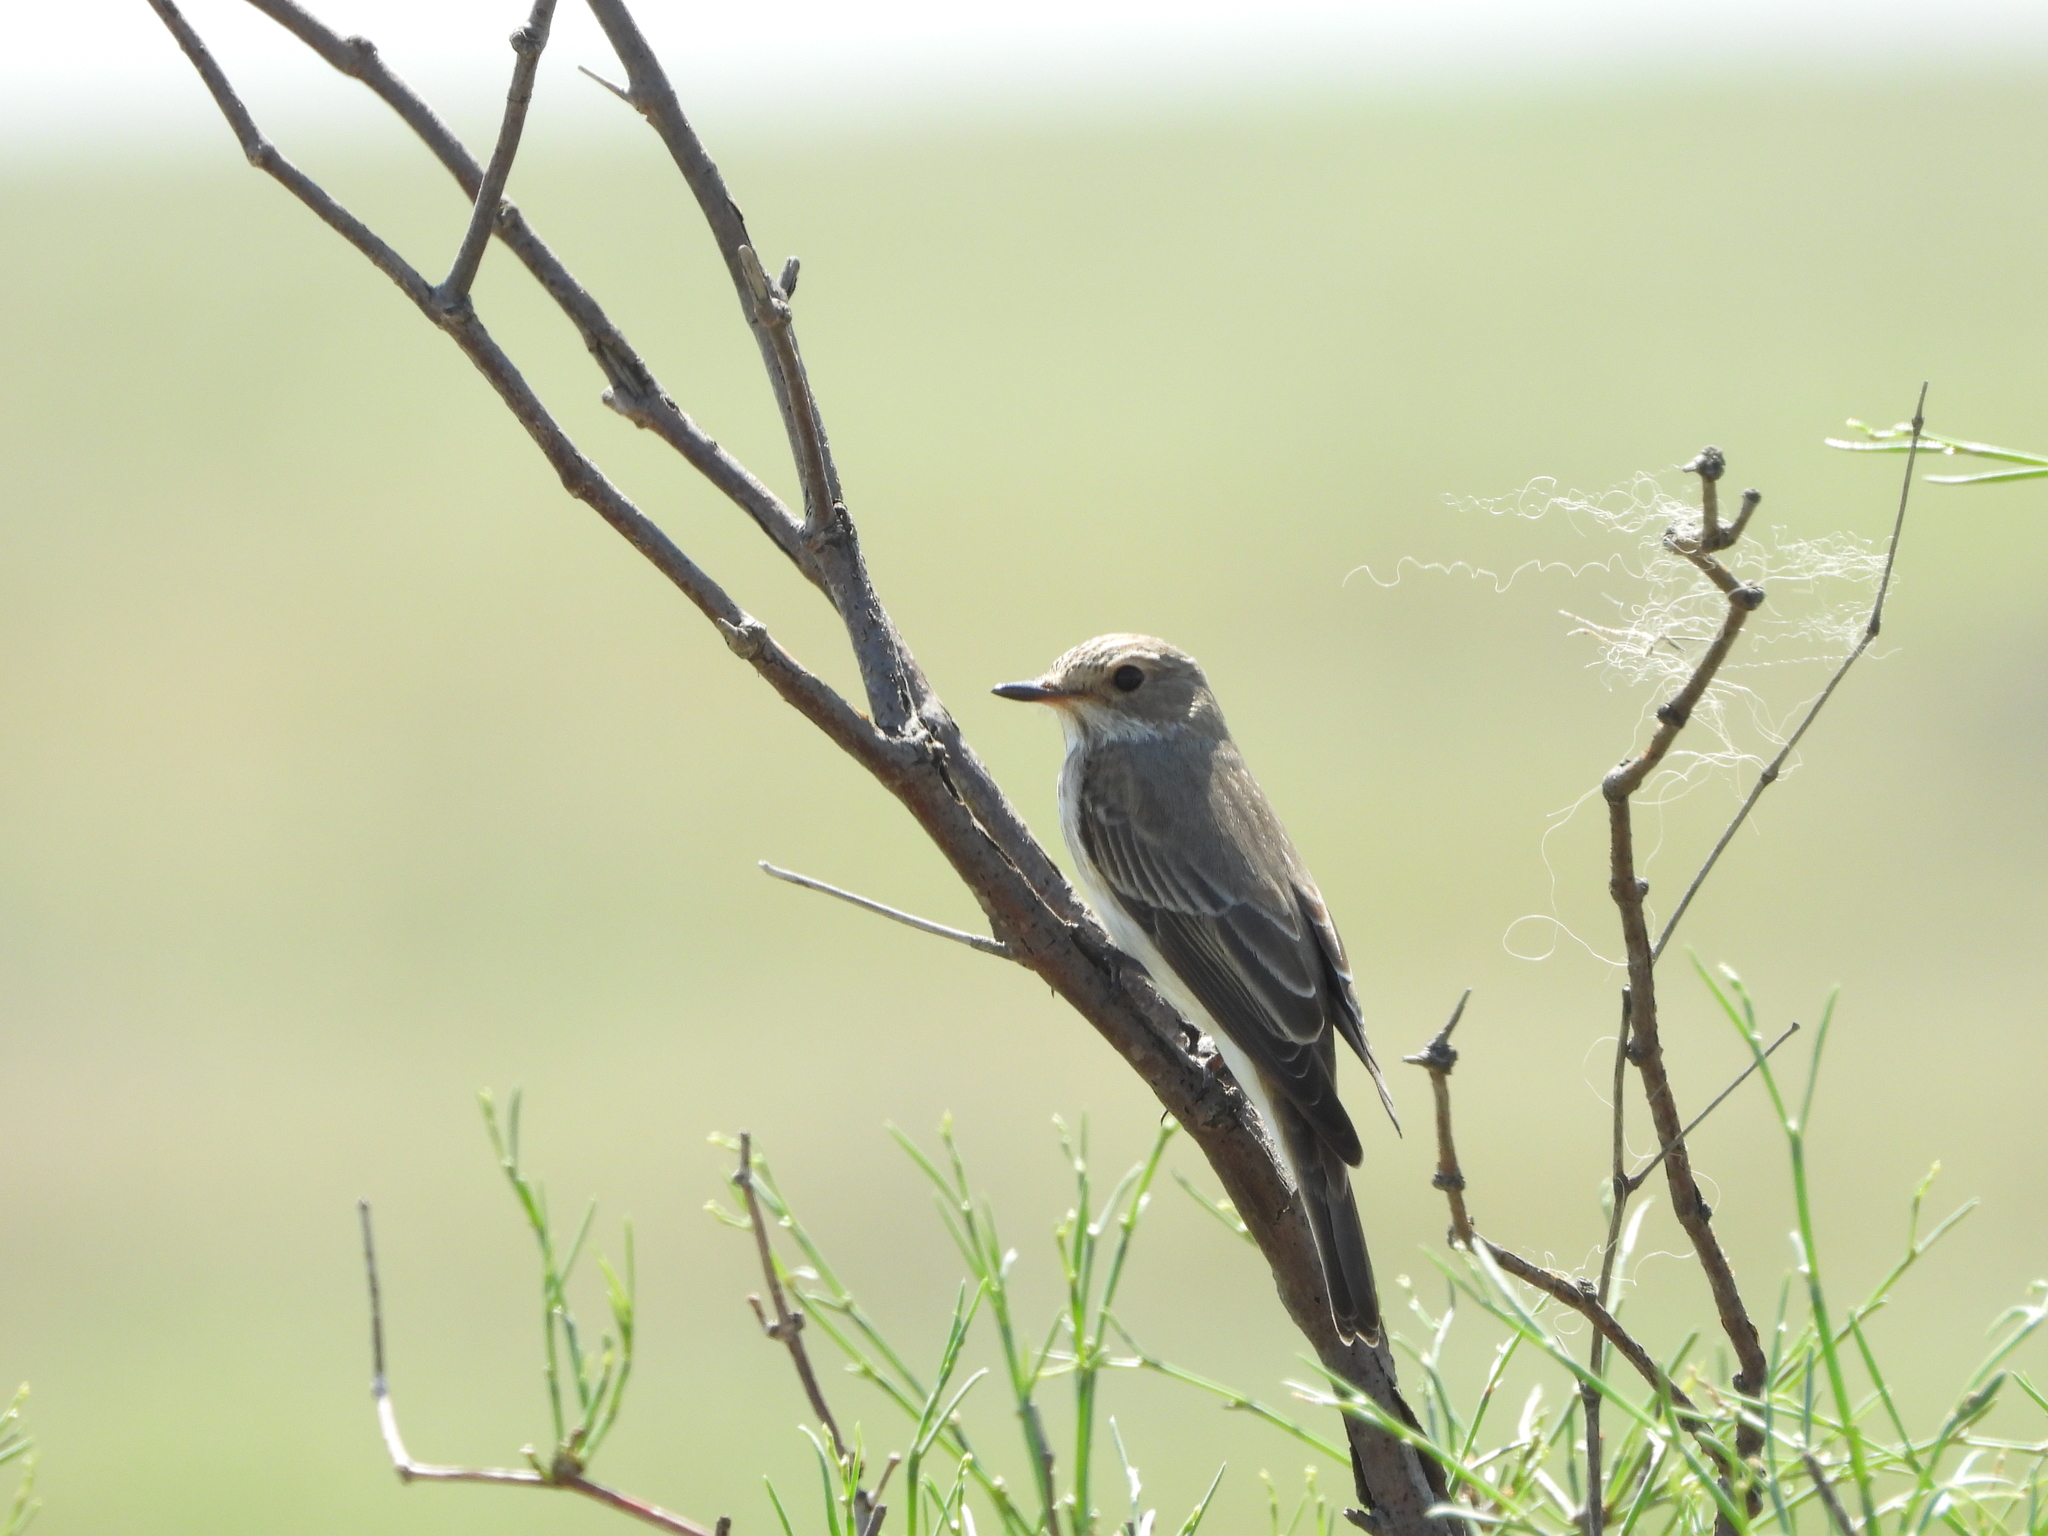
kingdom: Animalia
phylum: Chordata
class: Aves
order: Passeriformes
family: Muscicapidae
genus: Muscicapa
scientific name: Muscicapa striata
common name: Spotted flycatcher
